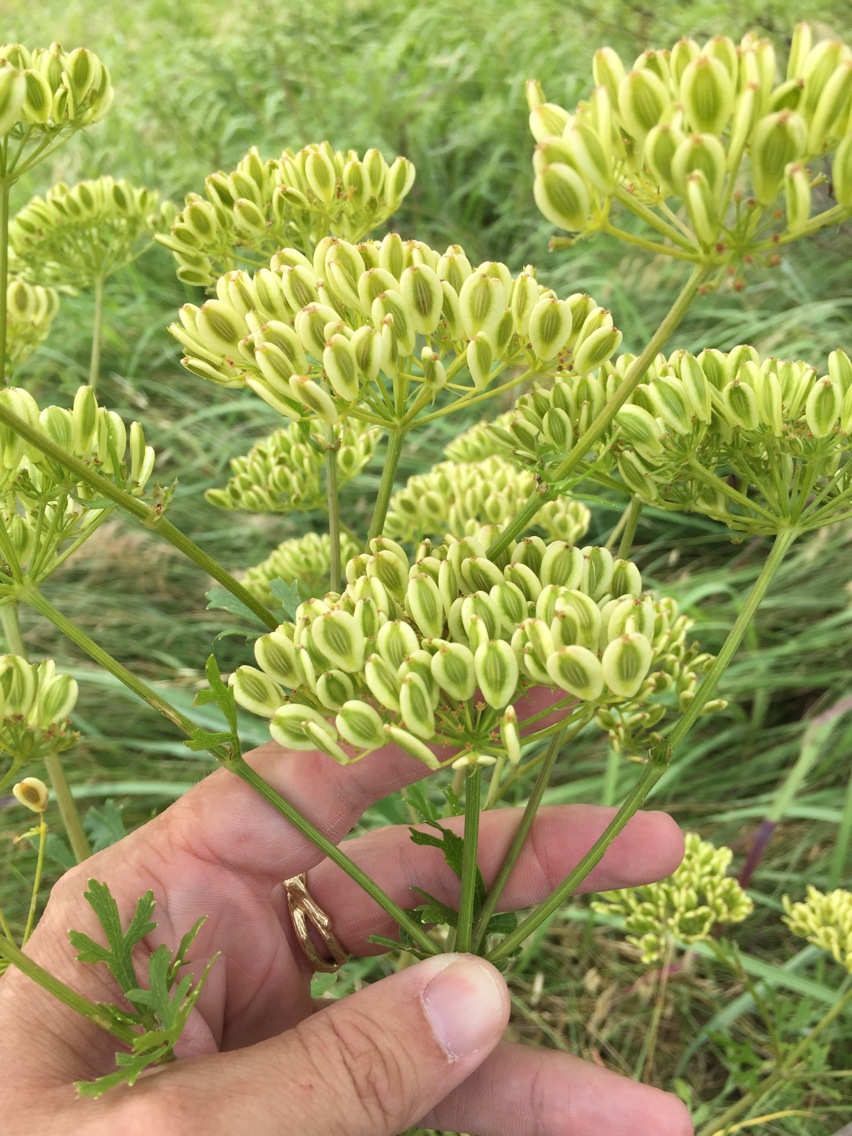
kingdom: Plantae
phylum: Tracheophyta
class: Magnoliopsida
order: Apiales
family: Apiaceae
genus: Polytaenia
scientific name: Polytaenia texana
